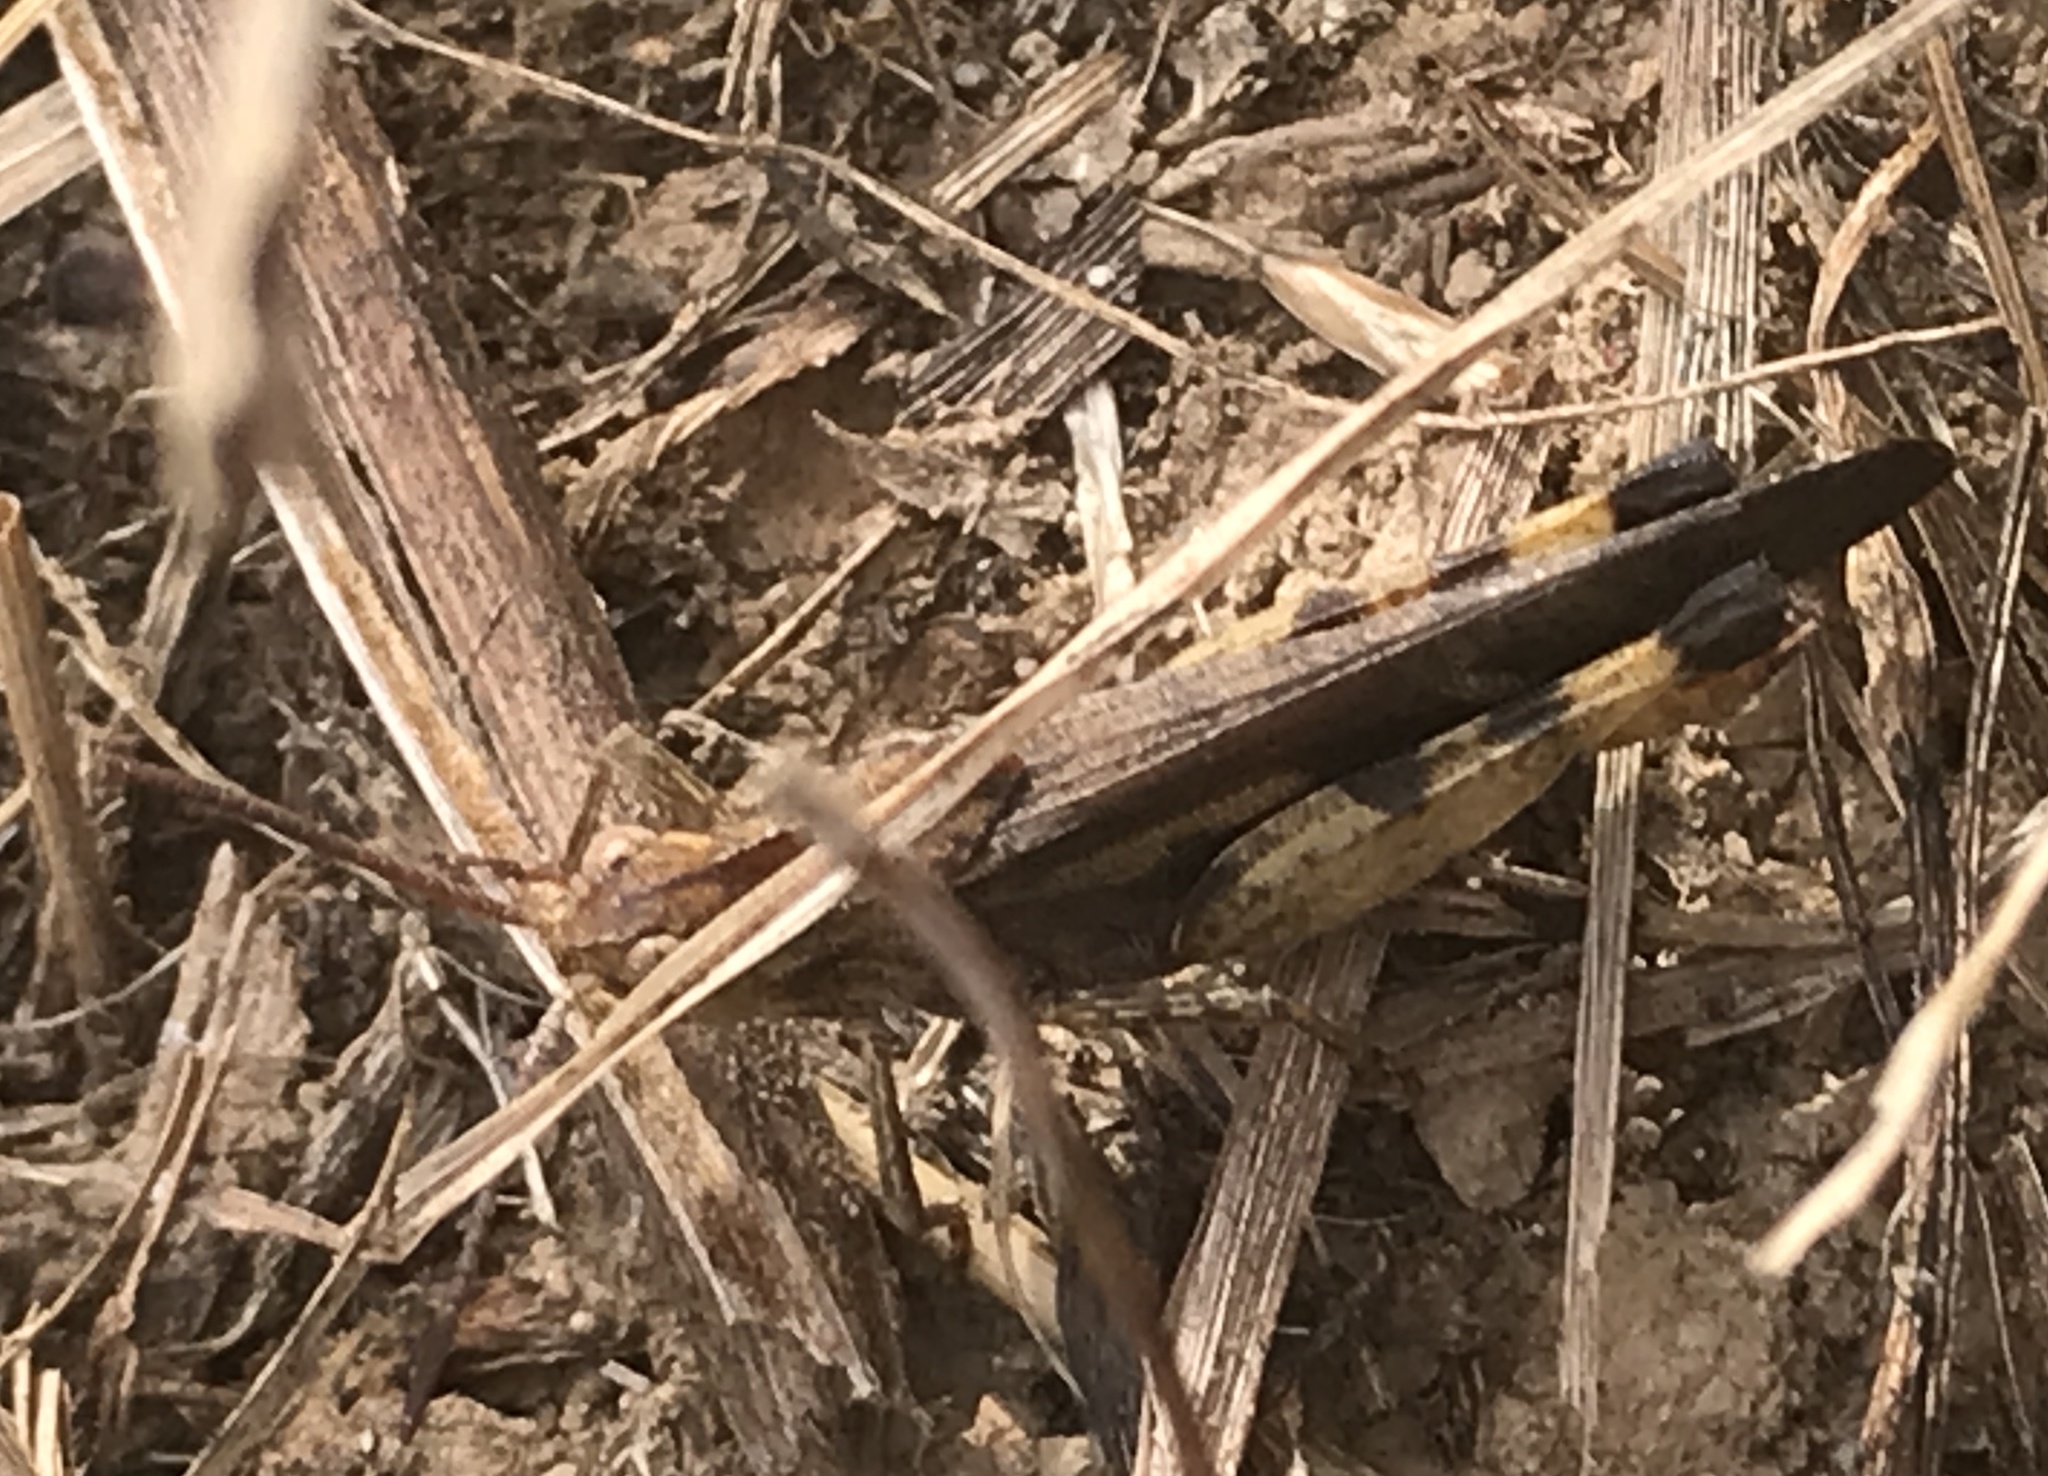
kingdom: Animalia
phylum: Arthropoda
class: Insecta
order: Orthoptera
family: Acrididae
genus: Chortophaga
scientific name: Chortophaga viridifasciata
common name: Green-striped grasshopper
